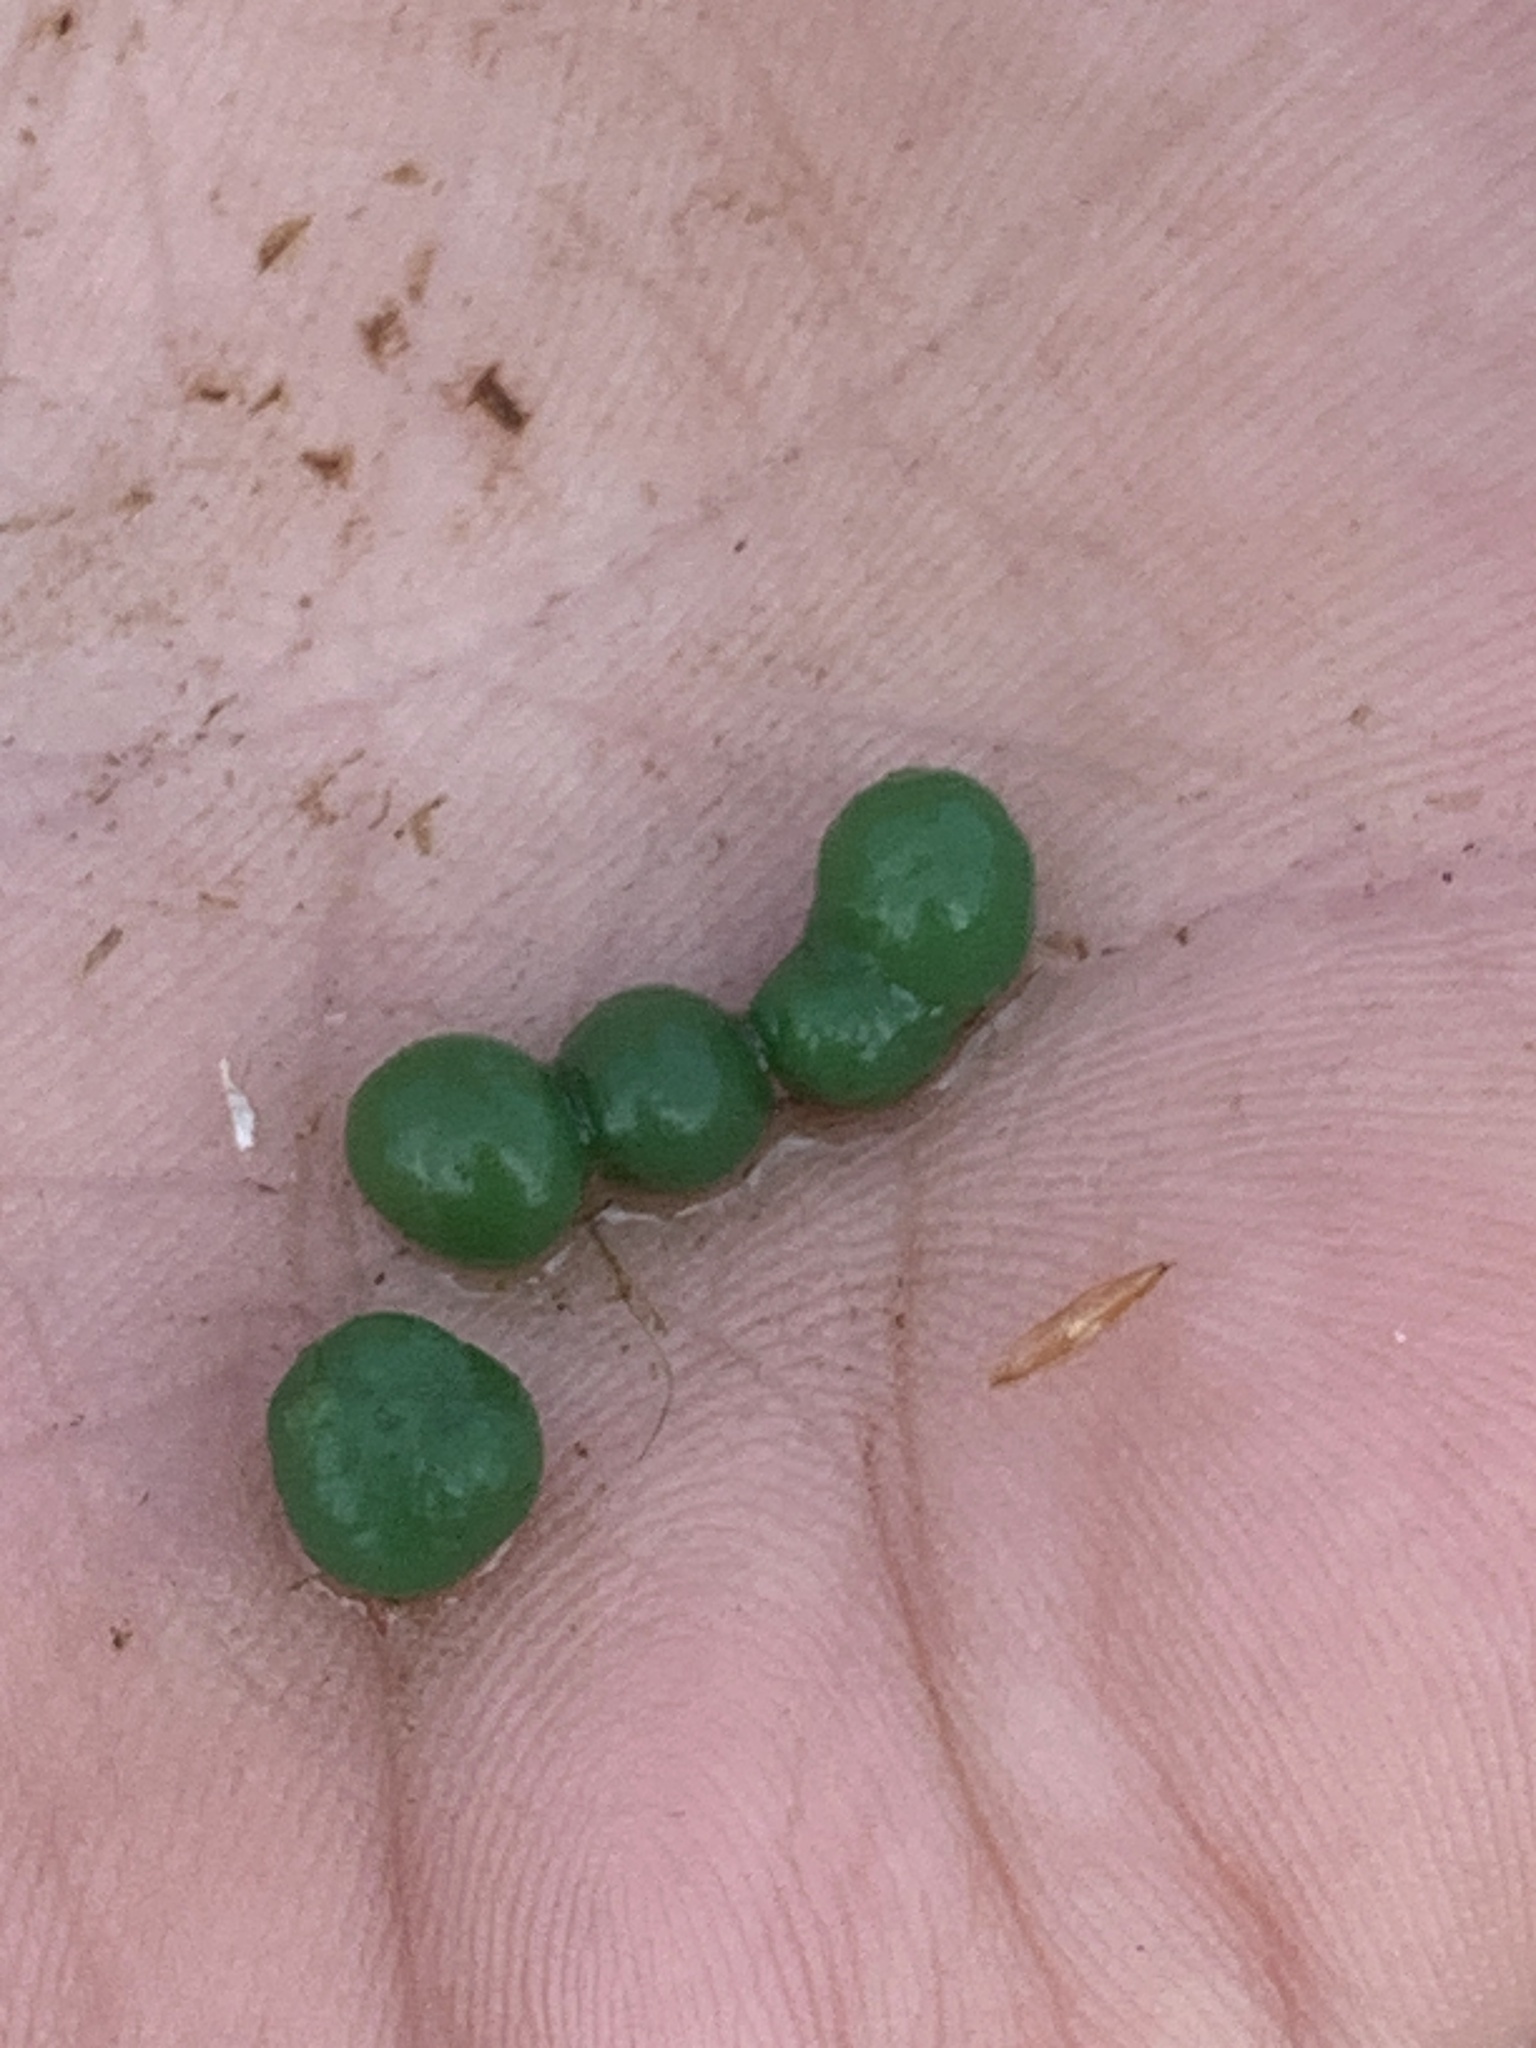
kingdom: Bacteria
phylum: Cyanobacteria
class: Cyanobacteriia
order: Cyanobacteriales
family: Nostocaceae
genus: Nostoc
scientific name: Nostoc kihlmanii
